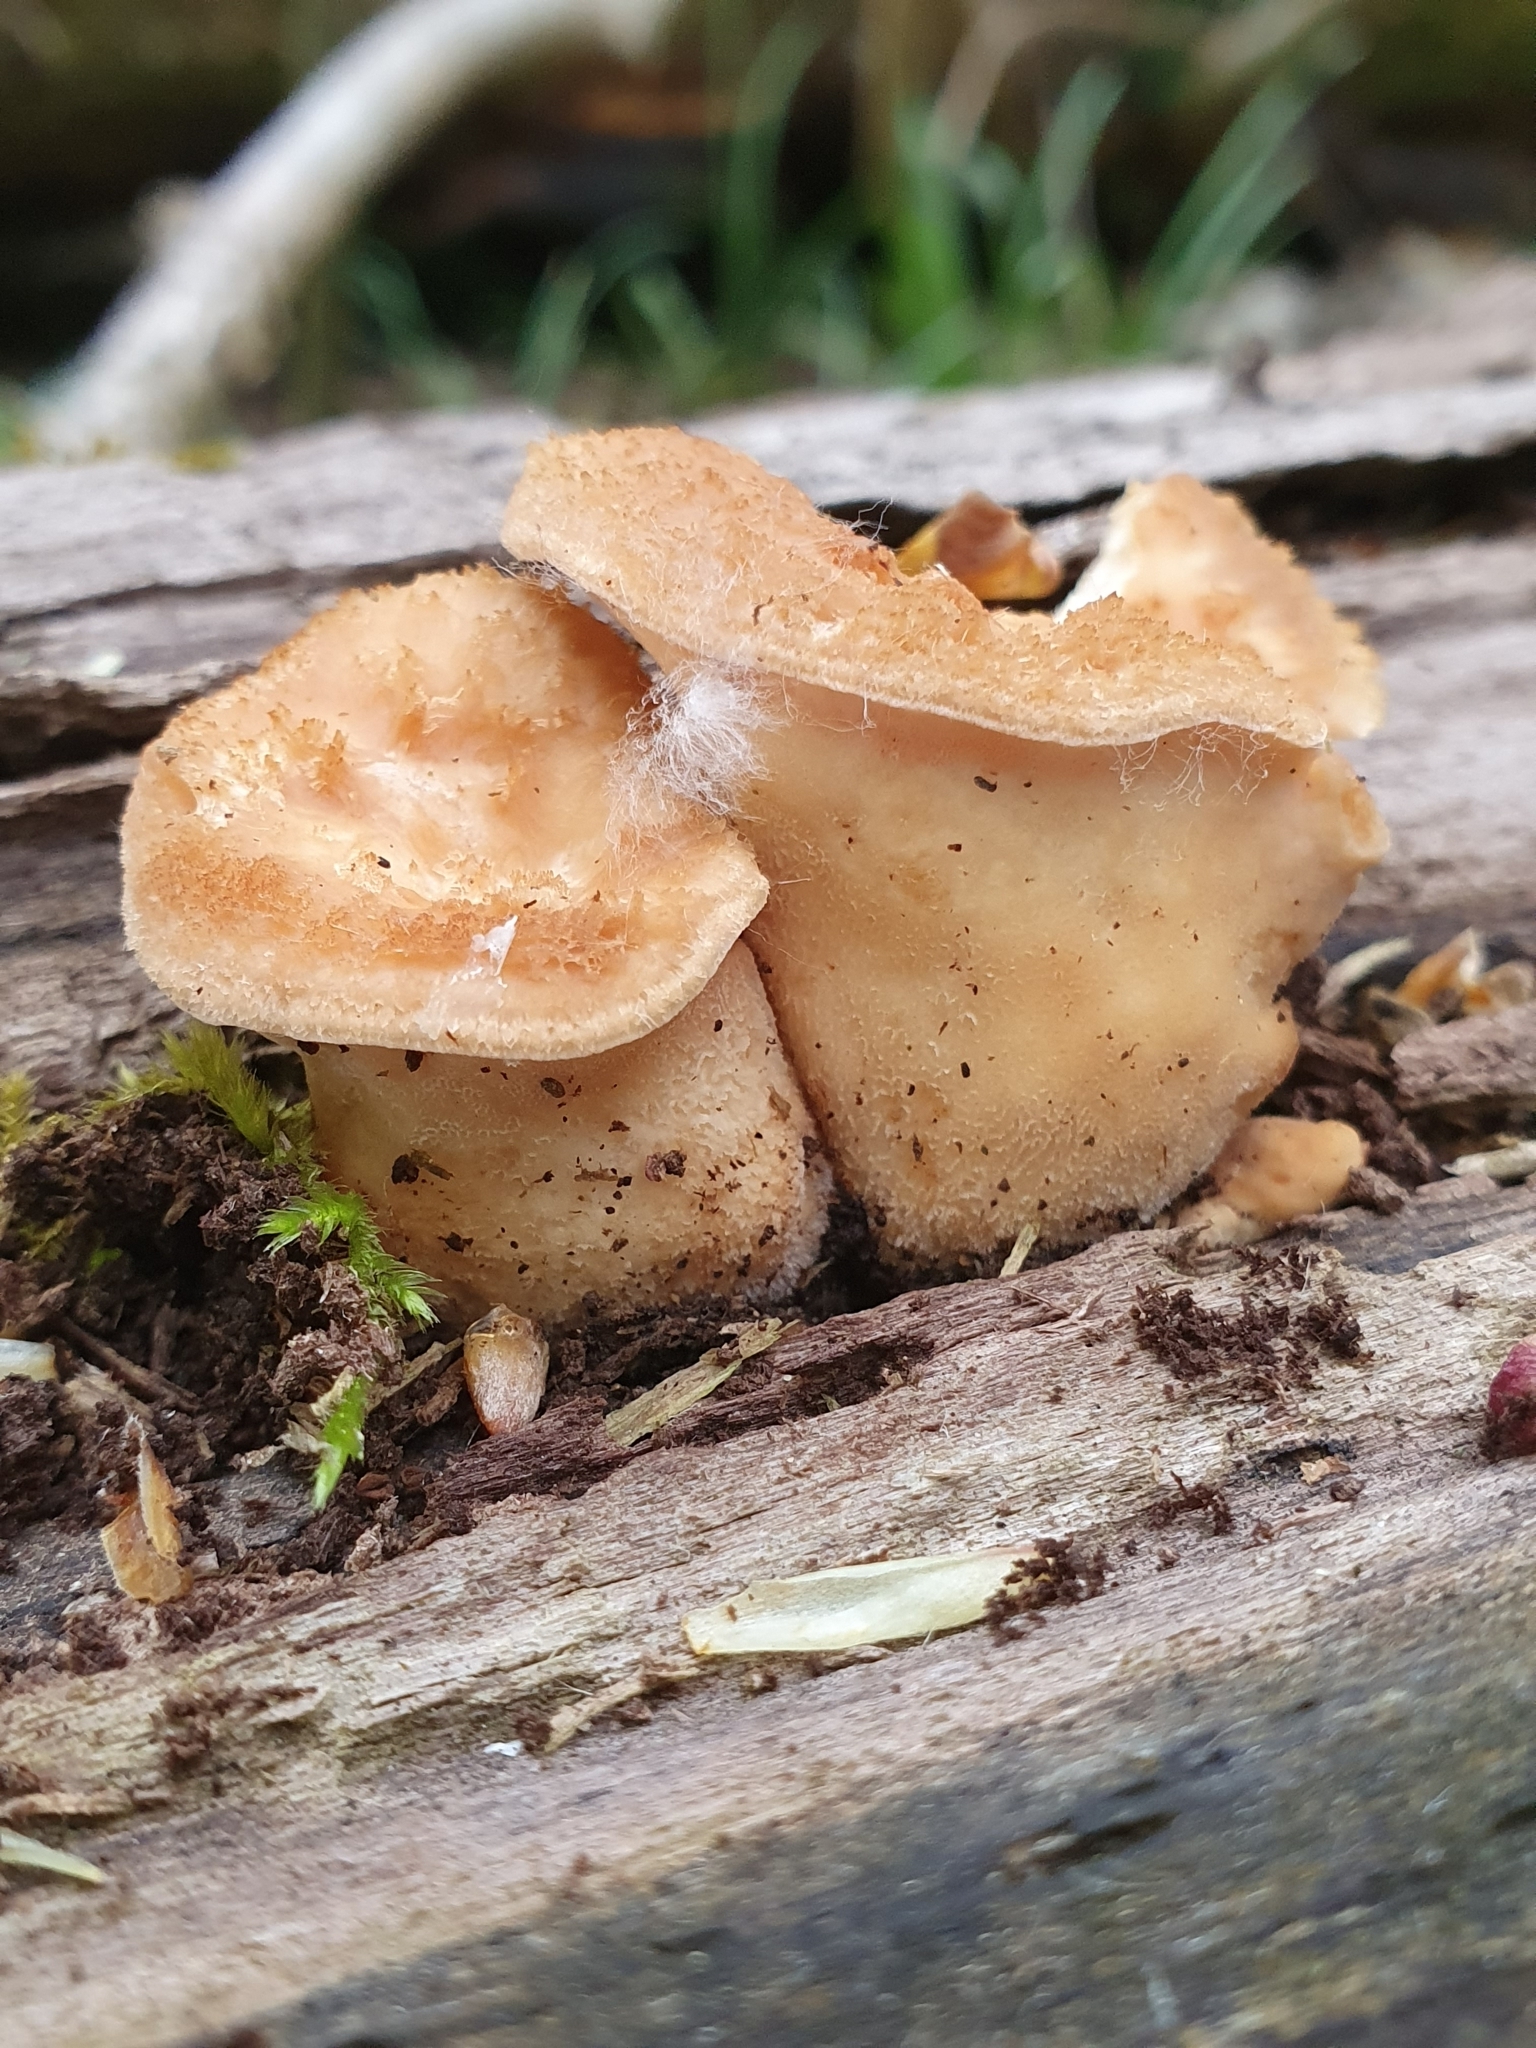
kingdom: Fungi
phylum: Basidiomycota
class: Agaricomycetes
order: Polyporales
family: Polyporaceae
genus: Polyporus
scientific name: Polyporus tuberaster
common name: Tuberous polypore
